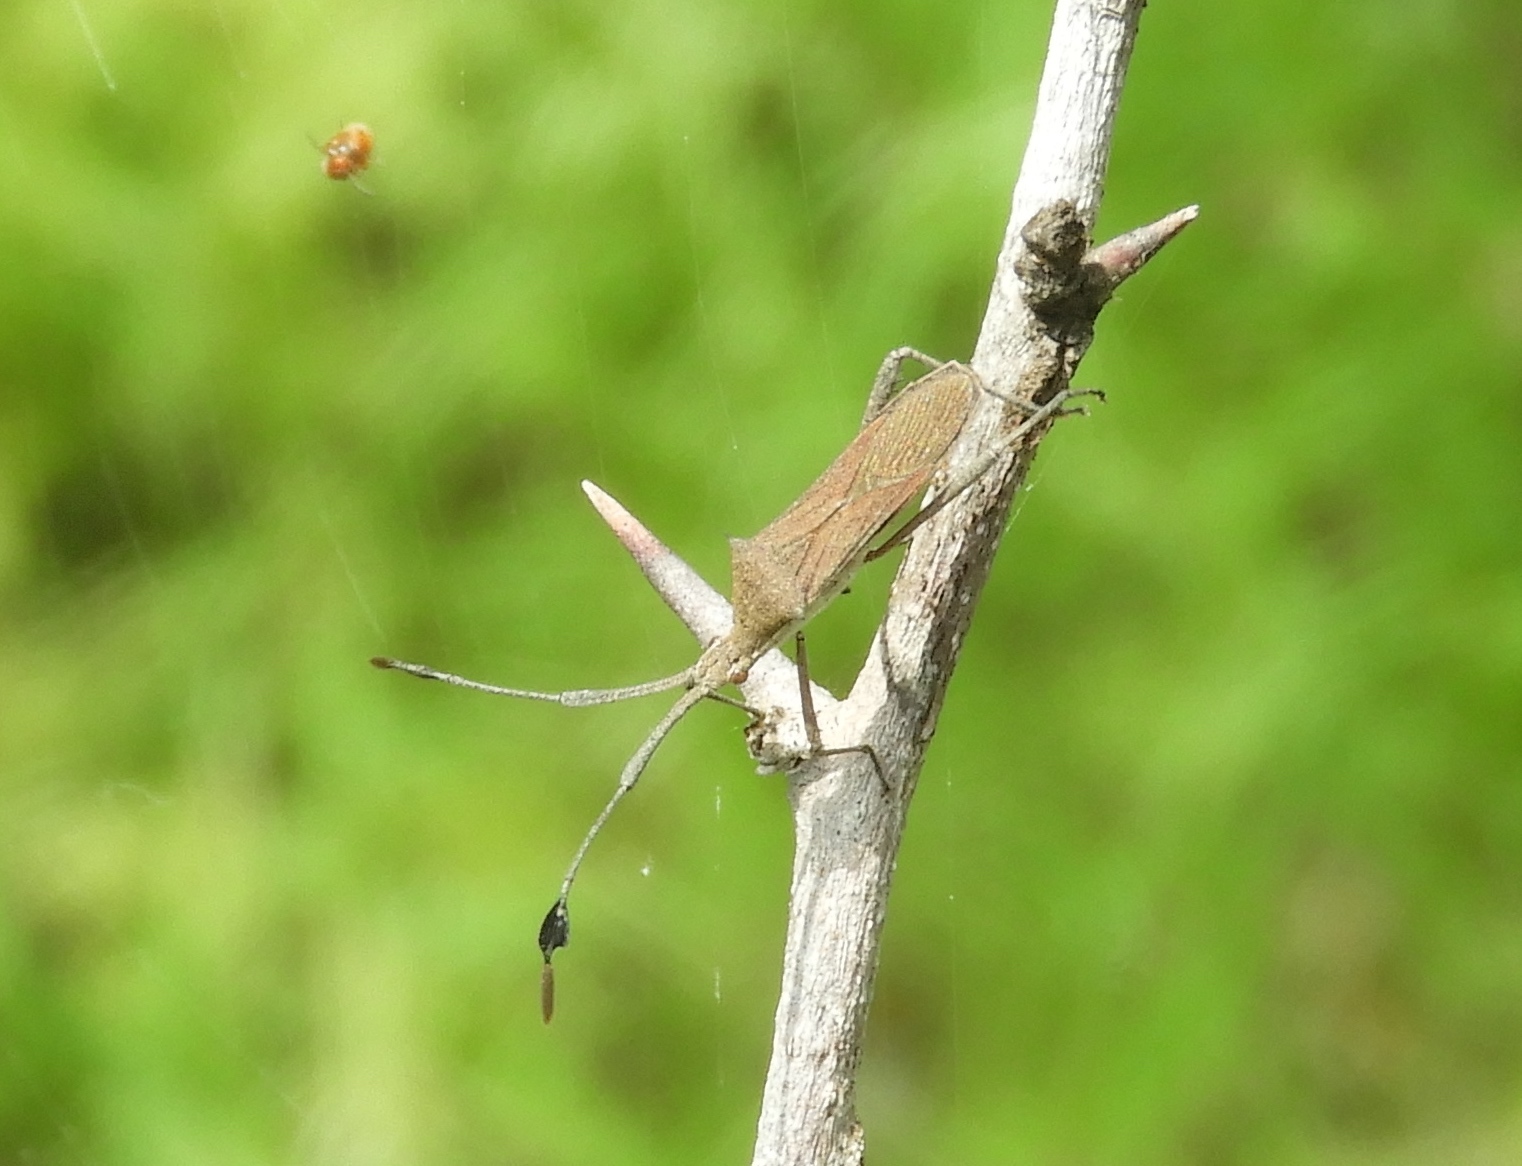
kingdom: Animalia
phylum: Arthropoda
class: Insecta
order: Hemiptera
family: Coreidae
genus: Chariesterus
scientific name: Chariesterus
